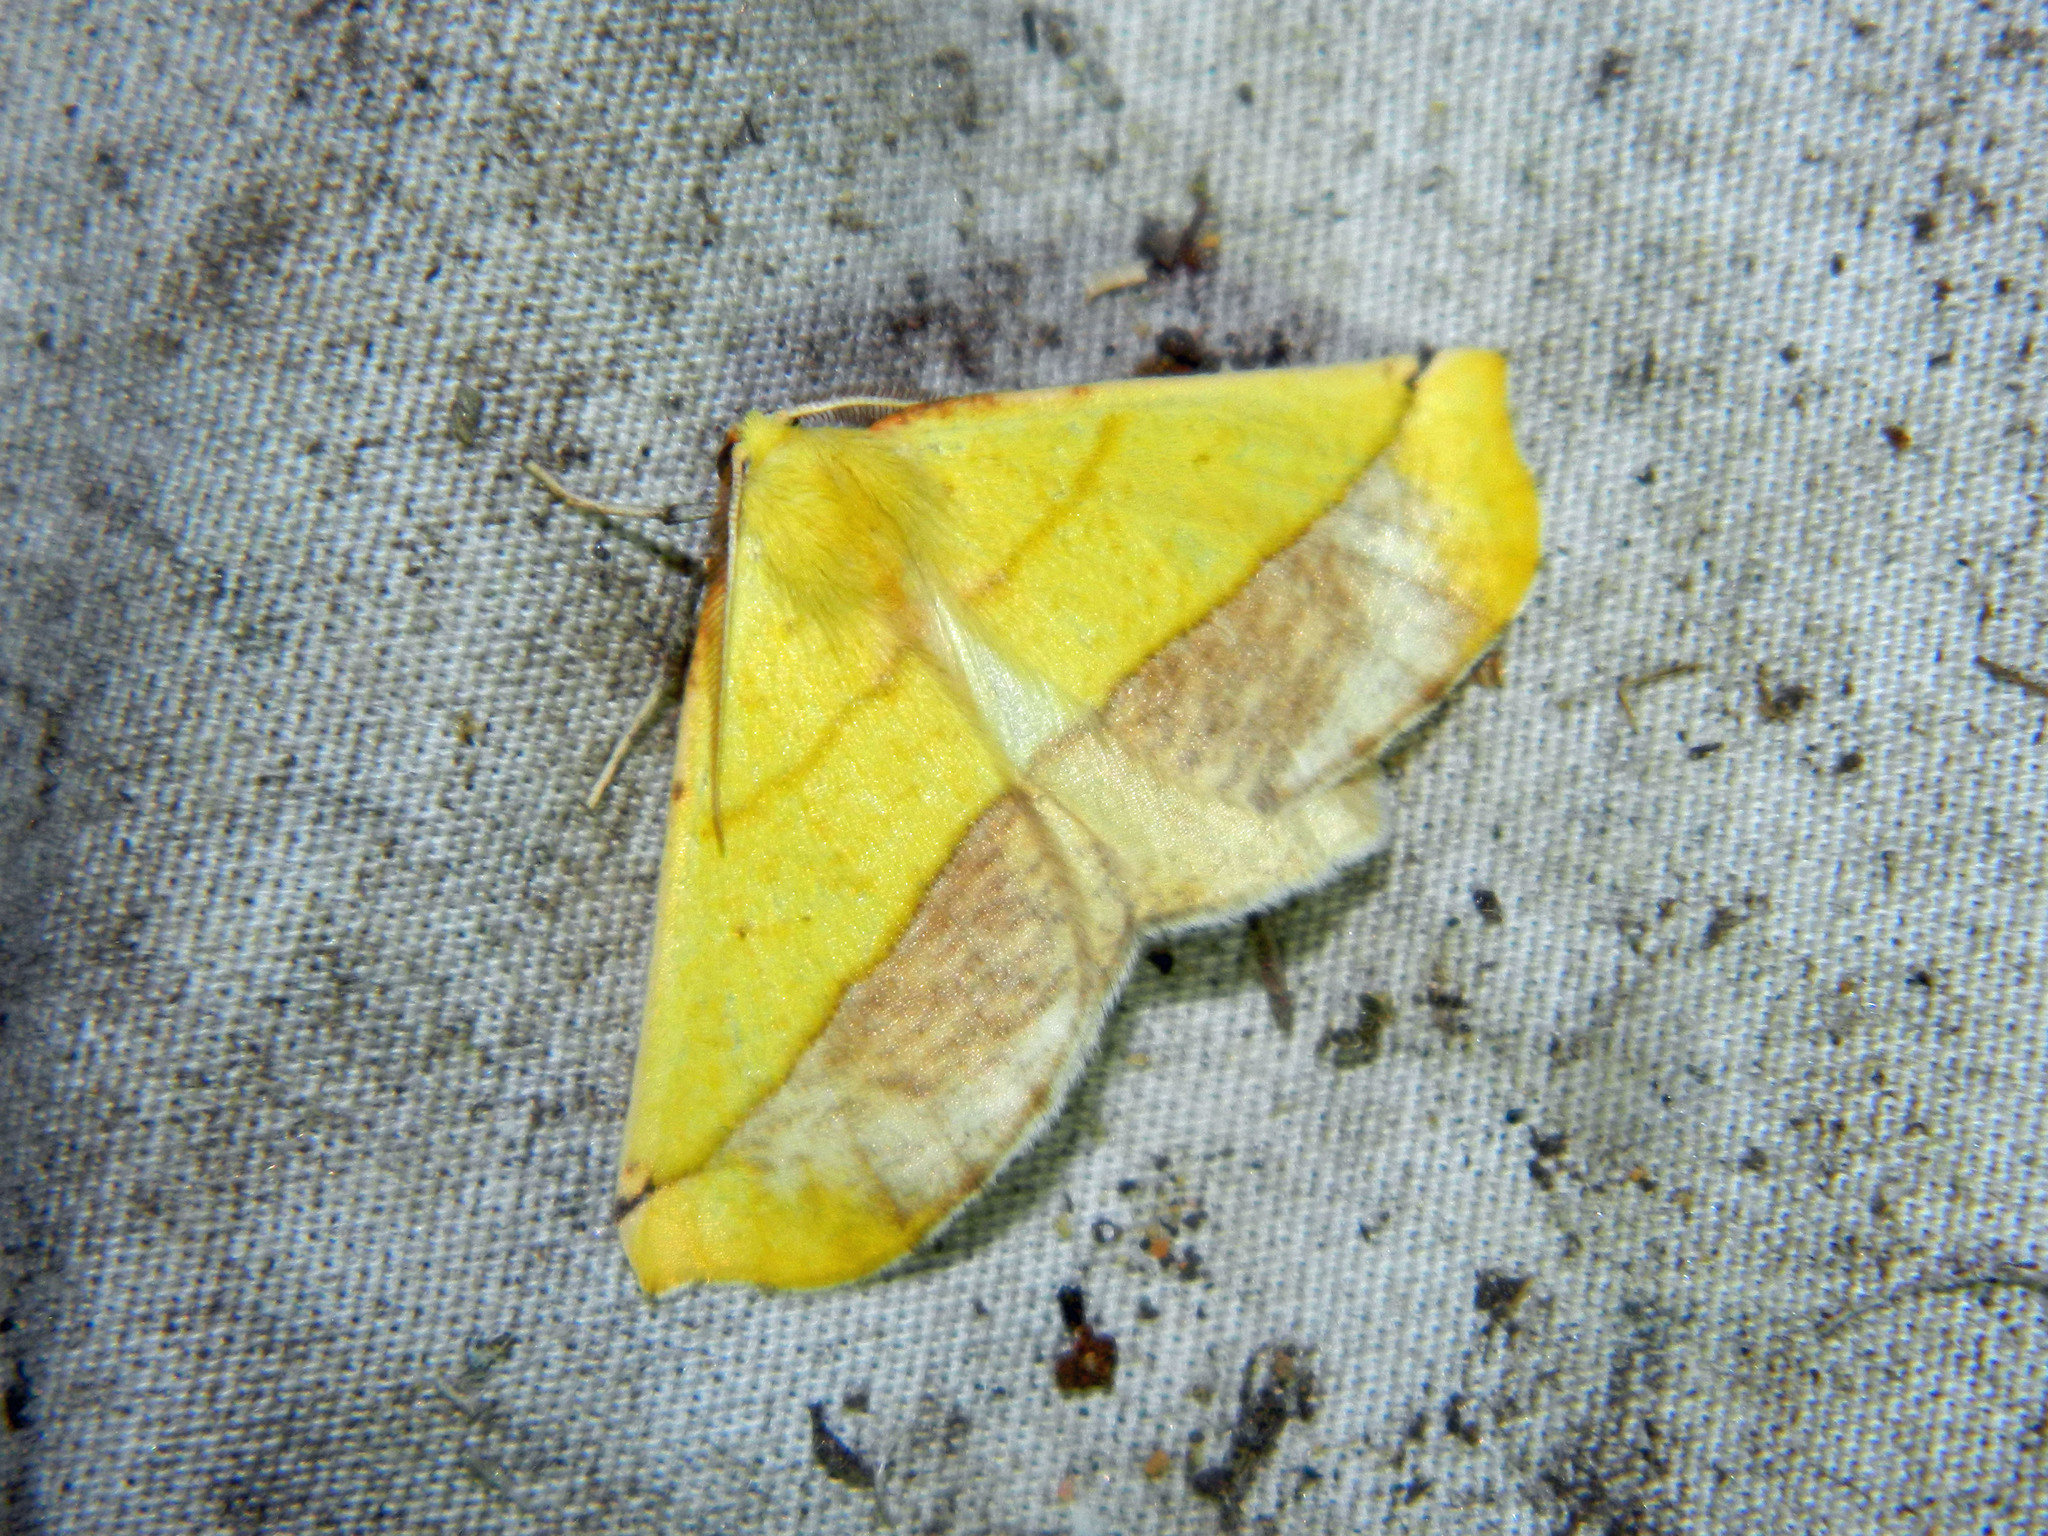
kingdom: Animalia
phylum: Arthropoda
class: Insecta
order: Lepidoptera
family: Geometridae
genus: Sicya
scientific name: Sicya macularia
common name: Sharp-lined yellow
